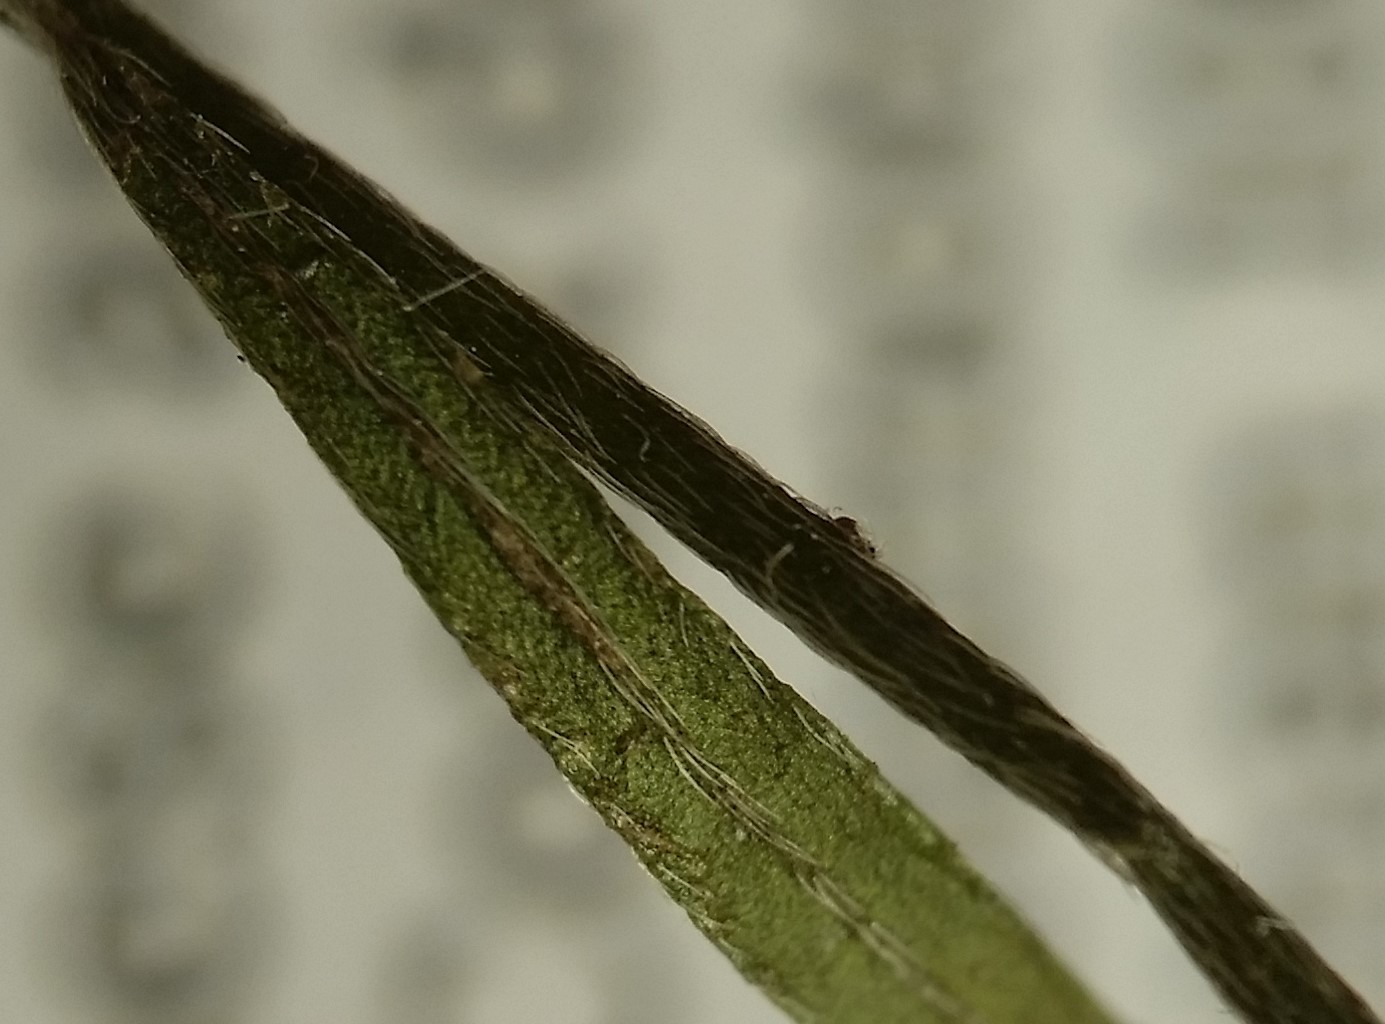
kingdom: Plantae
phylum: Tracheophyta
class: Magnoliopsida
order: Malvales
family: Cistaceae
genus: Lechea
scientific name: Lechea pulchella
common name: Leggett's pinweed
